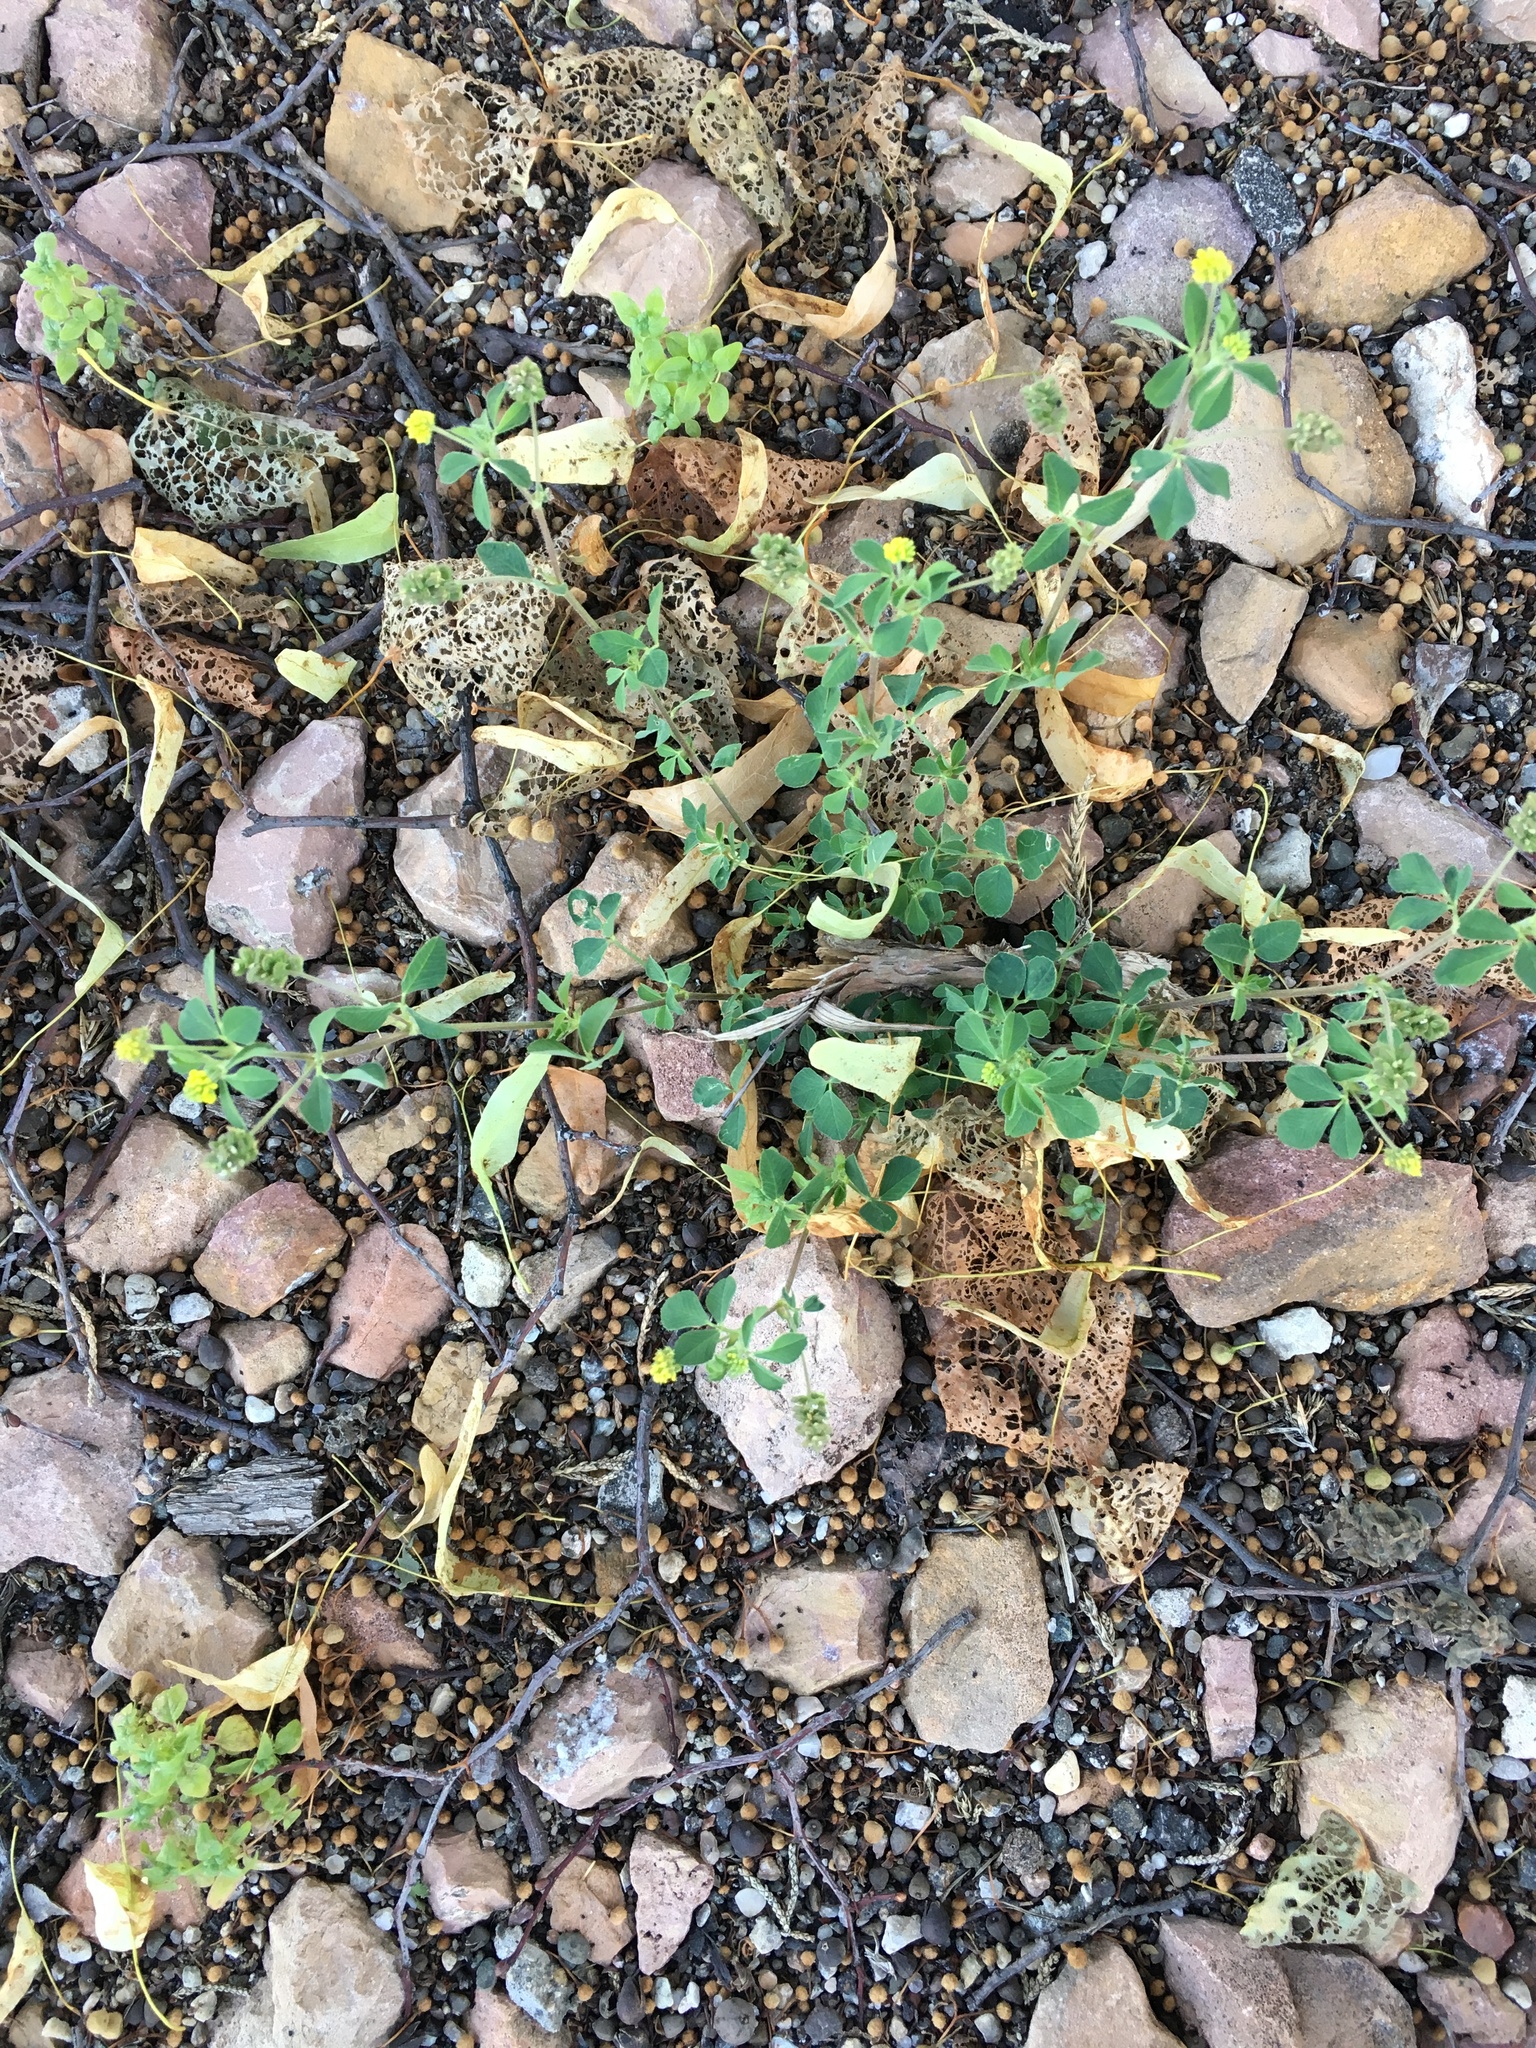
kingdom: Plantae
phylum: Tracheophyta
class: Magnoliopsida
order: Fabales
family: Fabaceae
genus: Medicago
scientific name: Medicago lupulina
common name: Black medick
